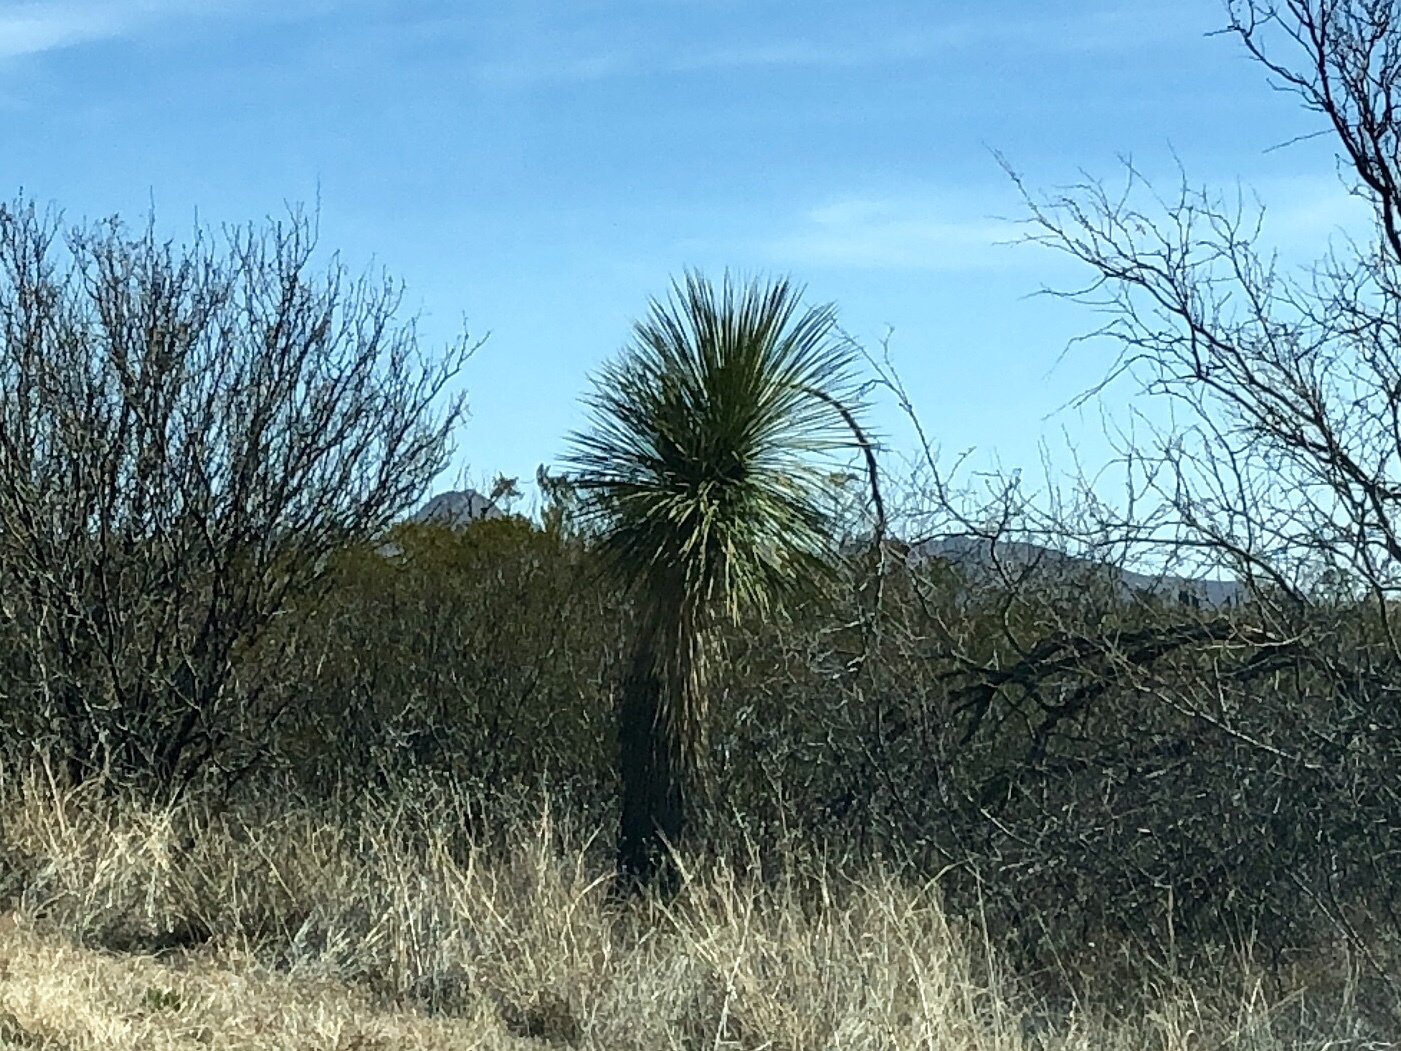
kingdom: Plantae
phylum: Tracheophyta
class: Liliopsida
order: Asparagales
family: Asparagaceae
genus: Yucca
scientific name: Yucca elata
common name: Palmella
